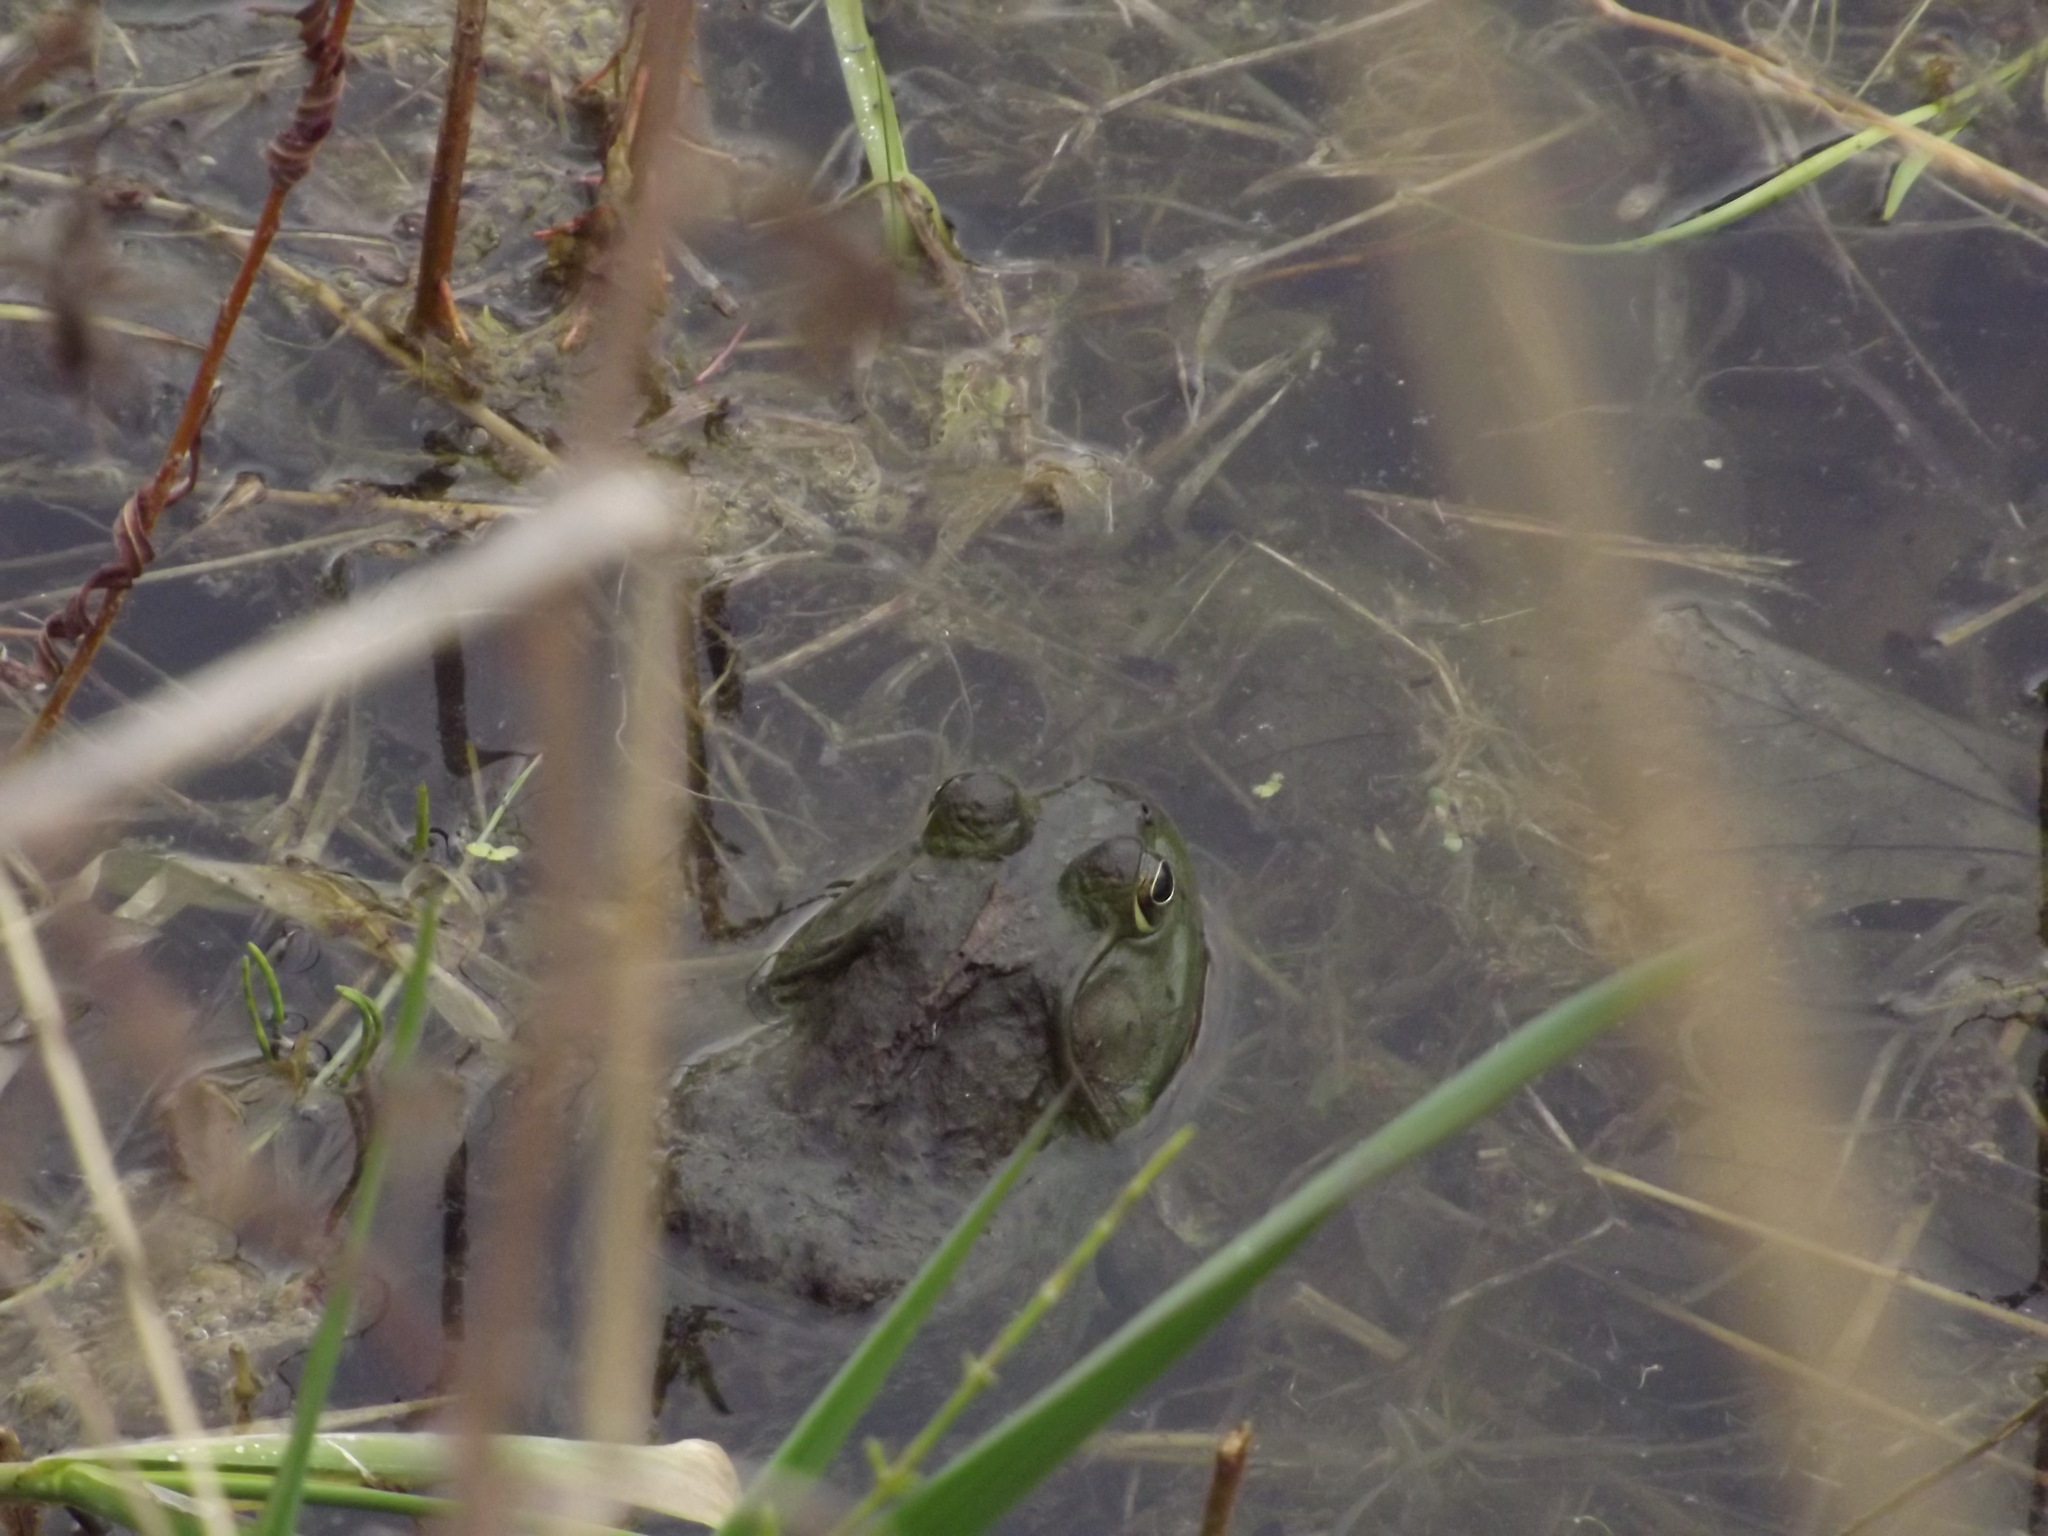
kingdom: Animalia
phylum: Chordata
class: Amphibia
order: Anura
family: Ranidae
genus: Lithobates
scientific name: Lithobates catesbeianus
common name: American bullfrog
